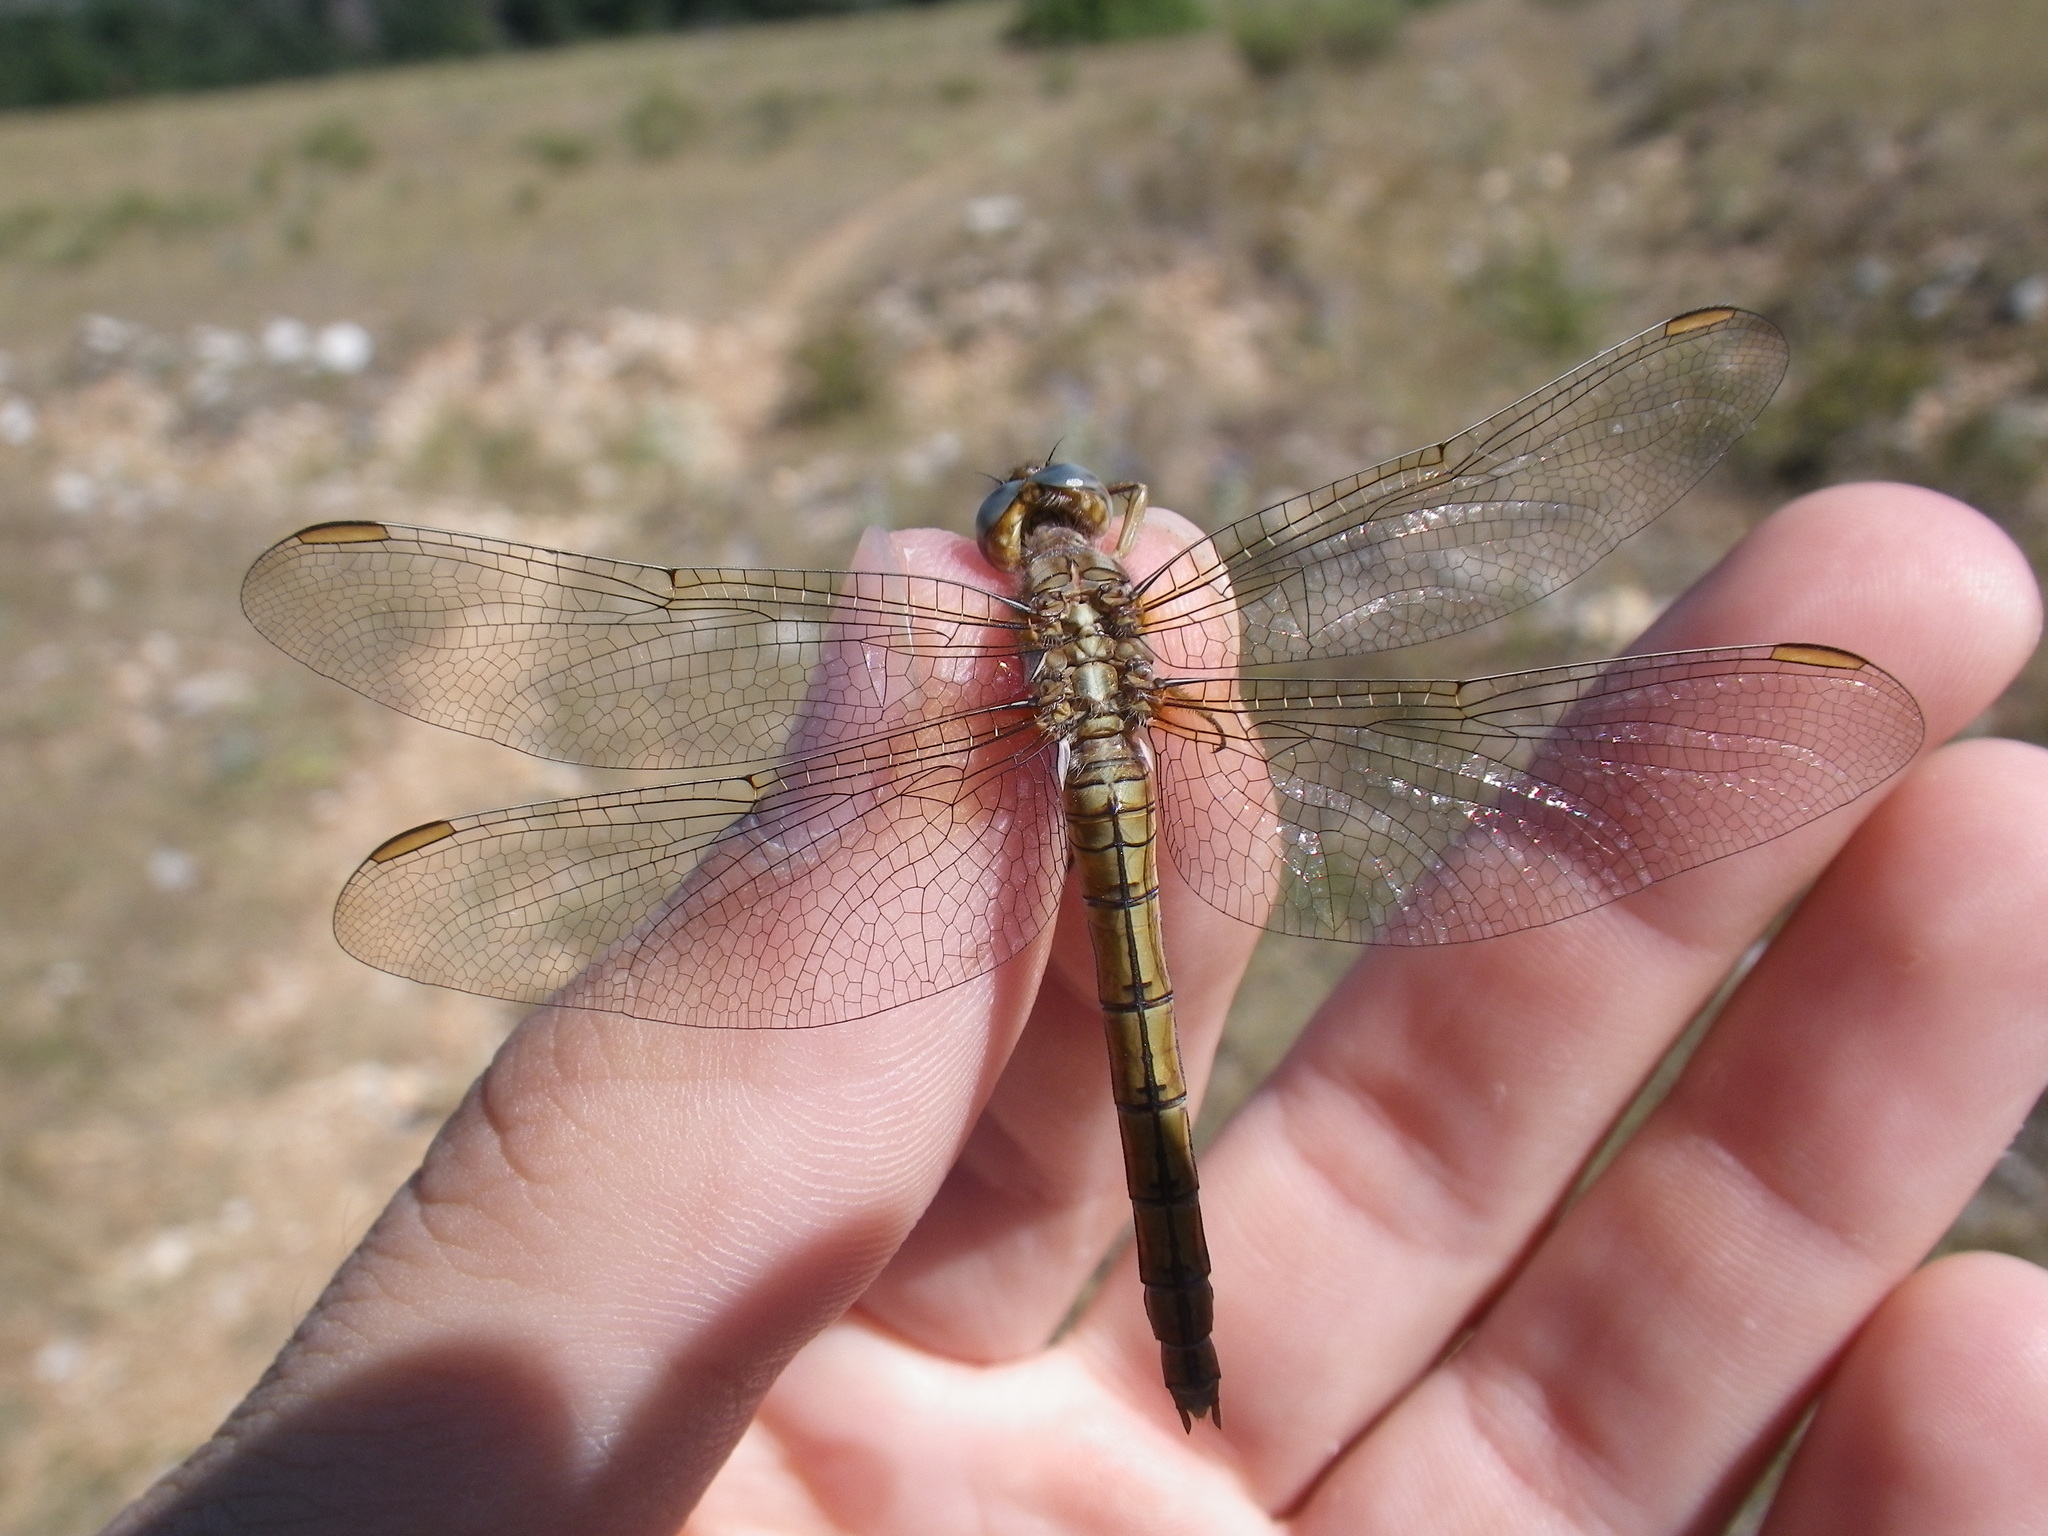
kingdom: Animalia
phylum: Arthropoda
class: Insecta
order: Odonata
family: Libellulidae
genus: Orthetrum
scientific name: Orthetrum coerulescens
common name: Keeled skimmer
